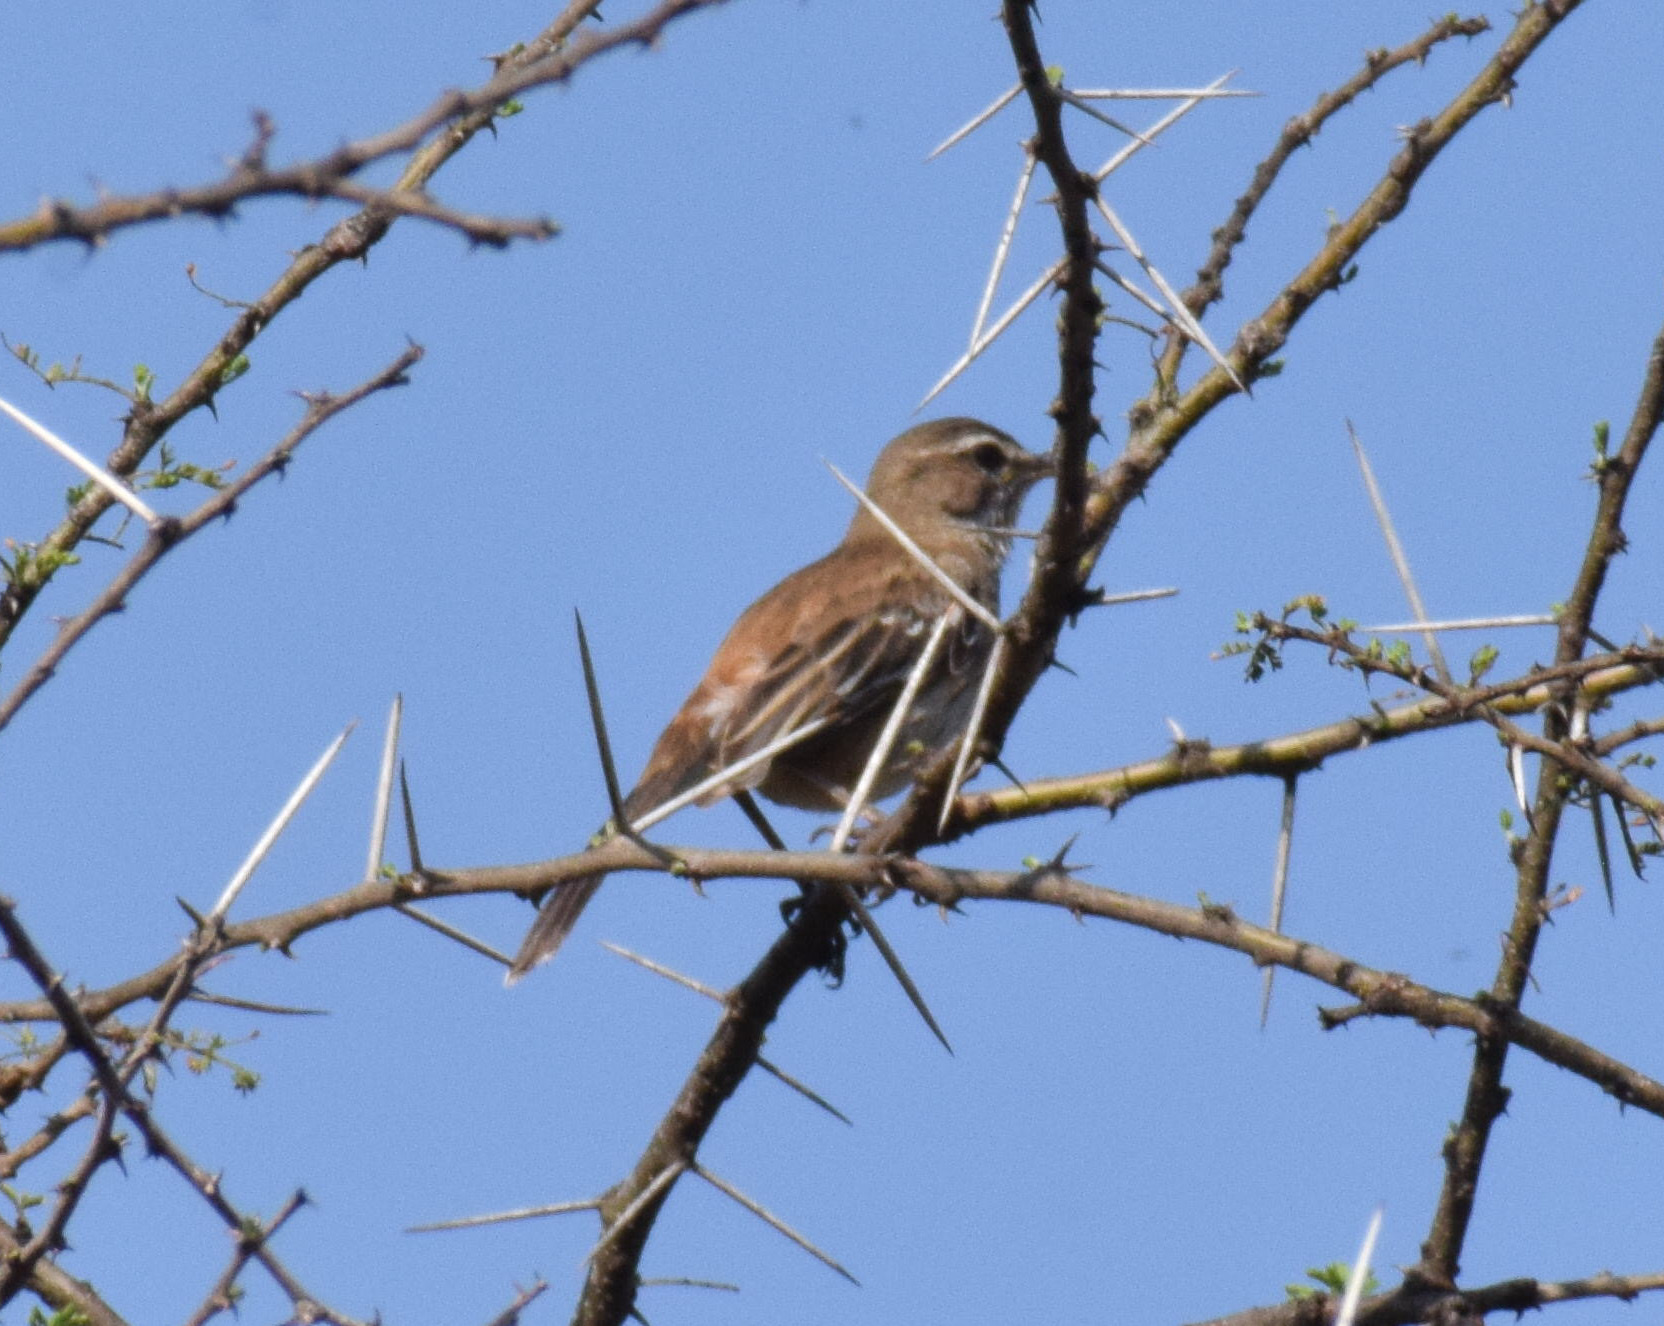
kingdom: Animalia
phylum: Chordata
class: Aves
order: Passeriformes
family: Muscicapidae
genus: Erythropygia
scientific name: Erythropygia leucophrys
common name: White-browed scrub robin
